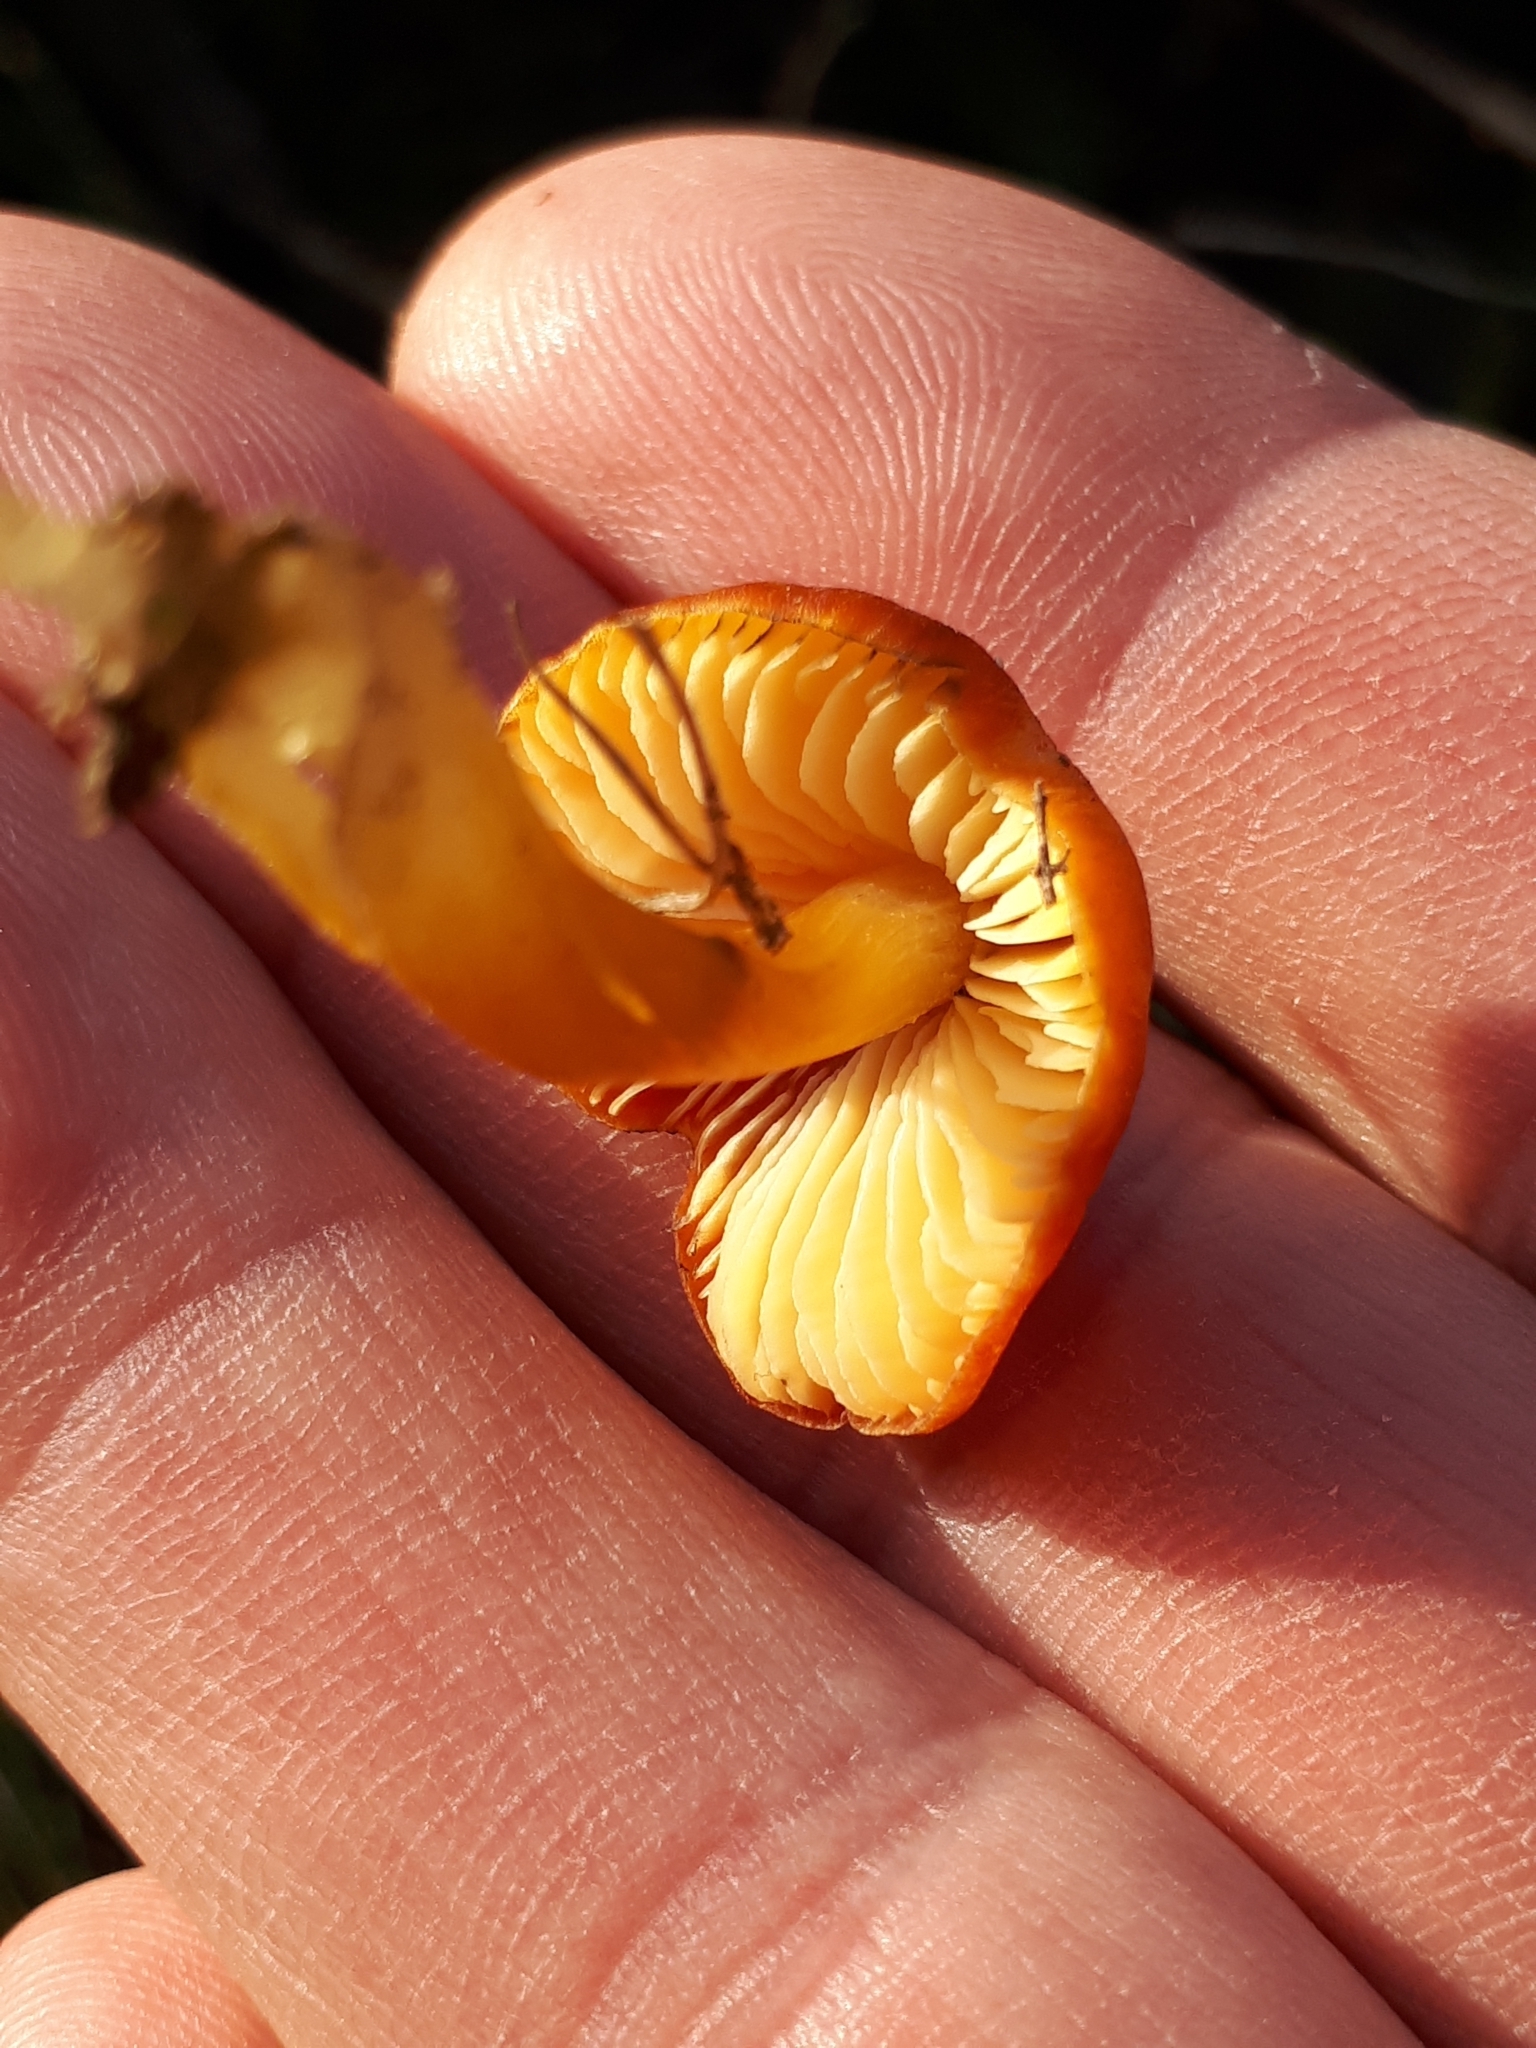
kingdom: Fungi
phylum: Basidiomycota
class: Agaricomycetes
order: Agaricales
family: Hygrophoraceae
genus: Hygrocybe
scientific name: Hygrocybe conica
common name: Blackening wax-cap
